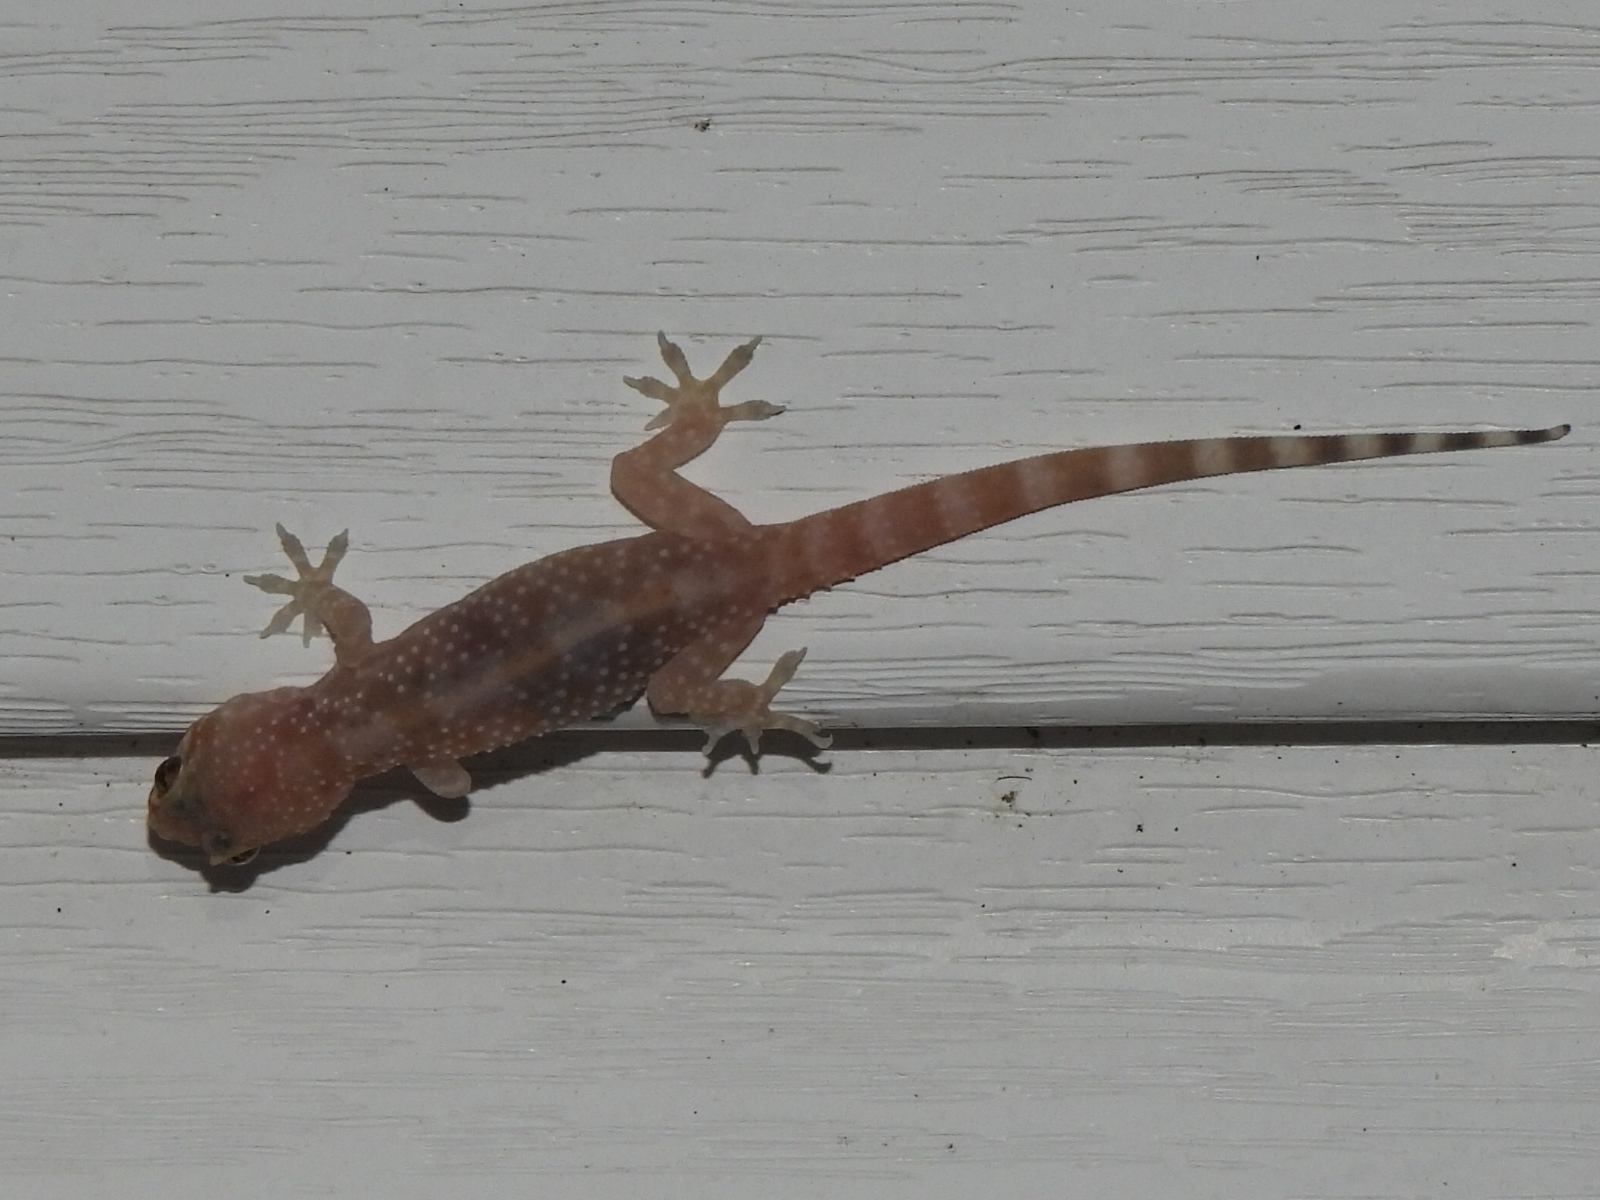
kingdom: Animalia
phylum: Chordata
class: Squamata
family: Gekkonidae
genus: Hemidactylus
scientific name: Hemidactylus turcicus
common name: Turkish gecko
